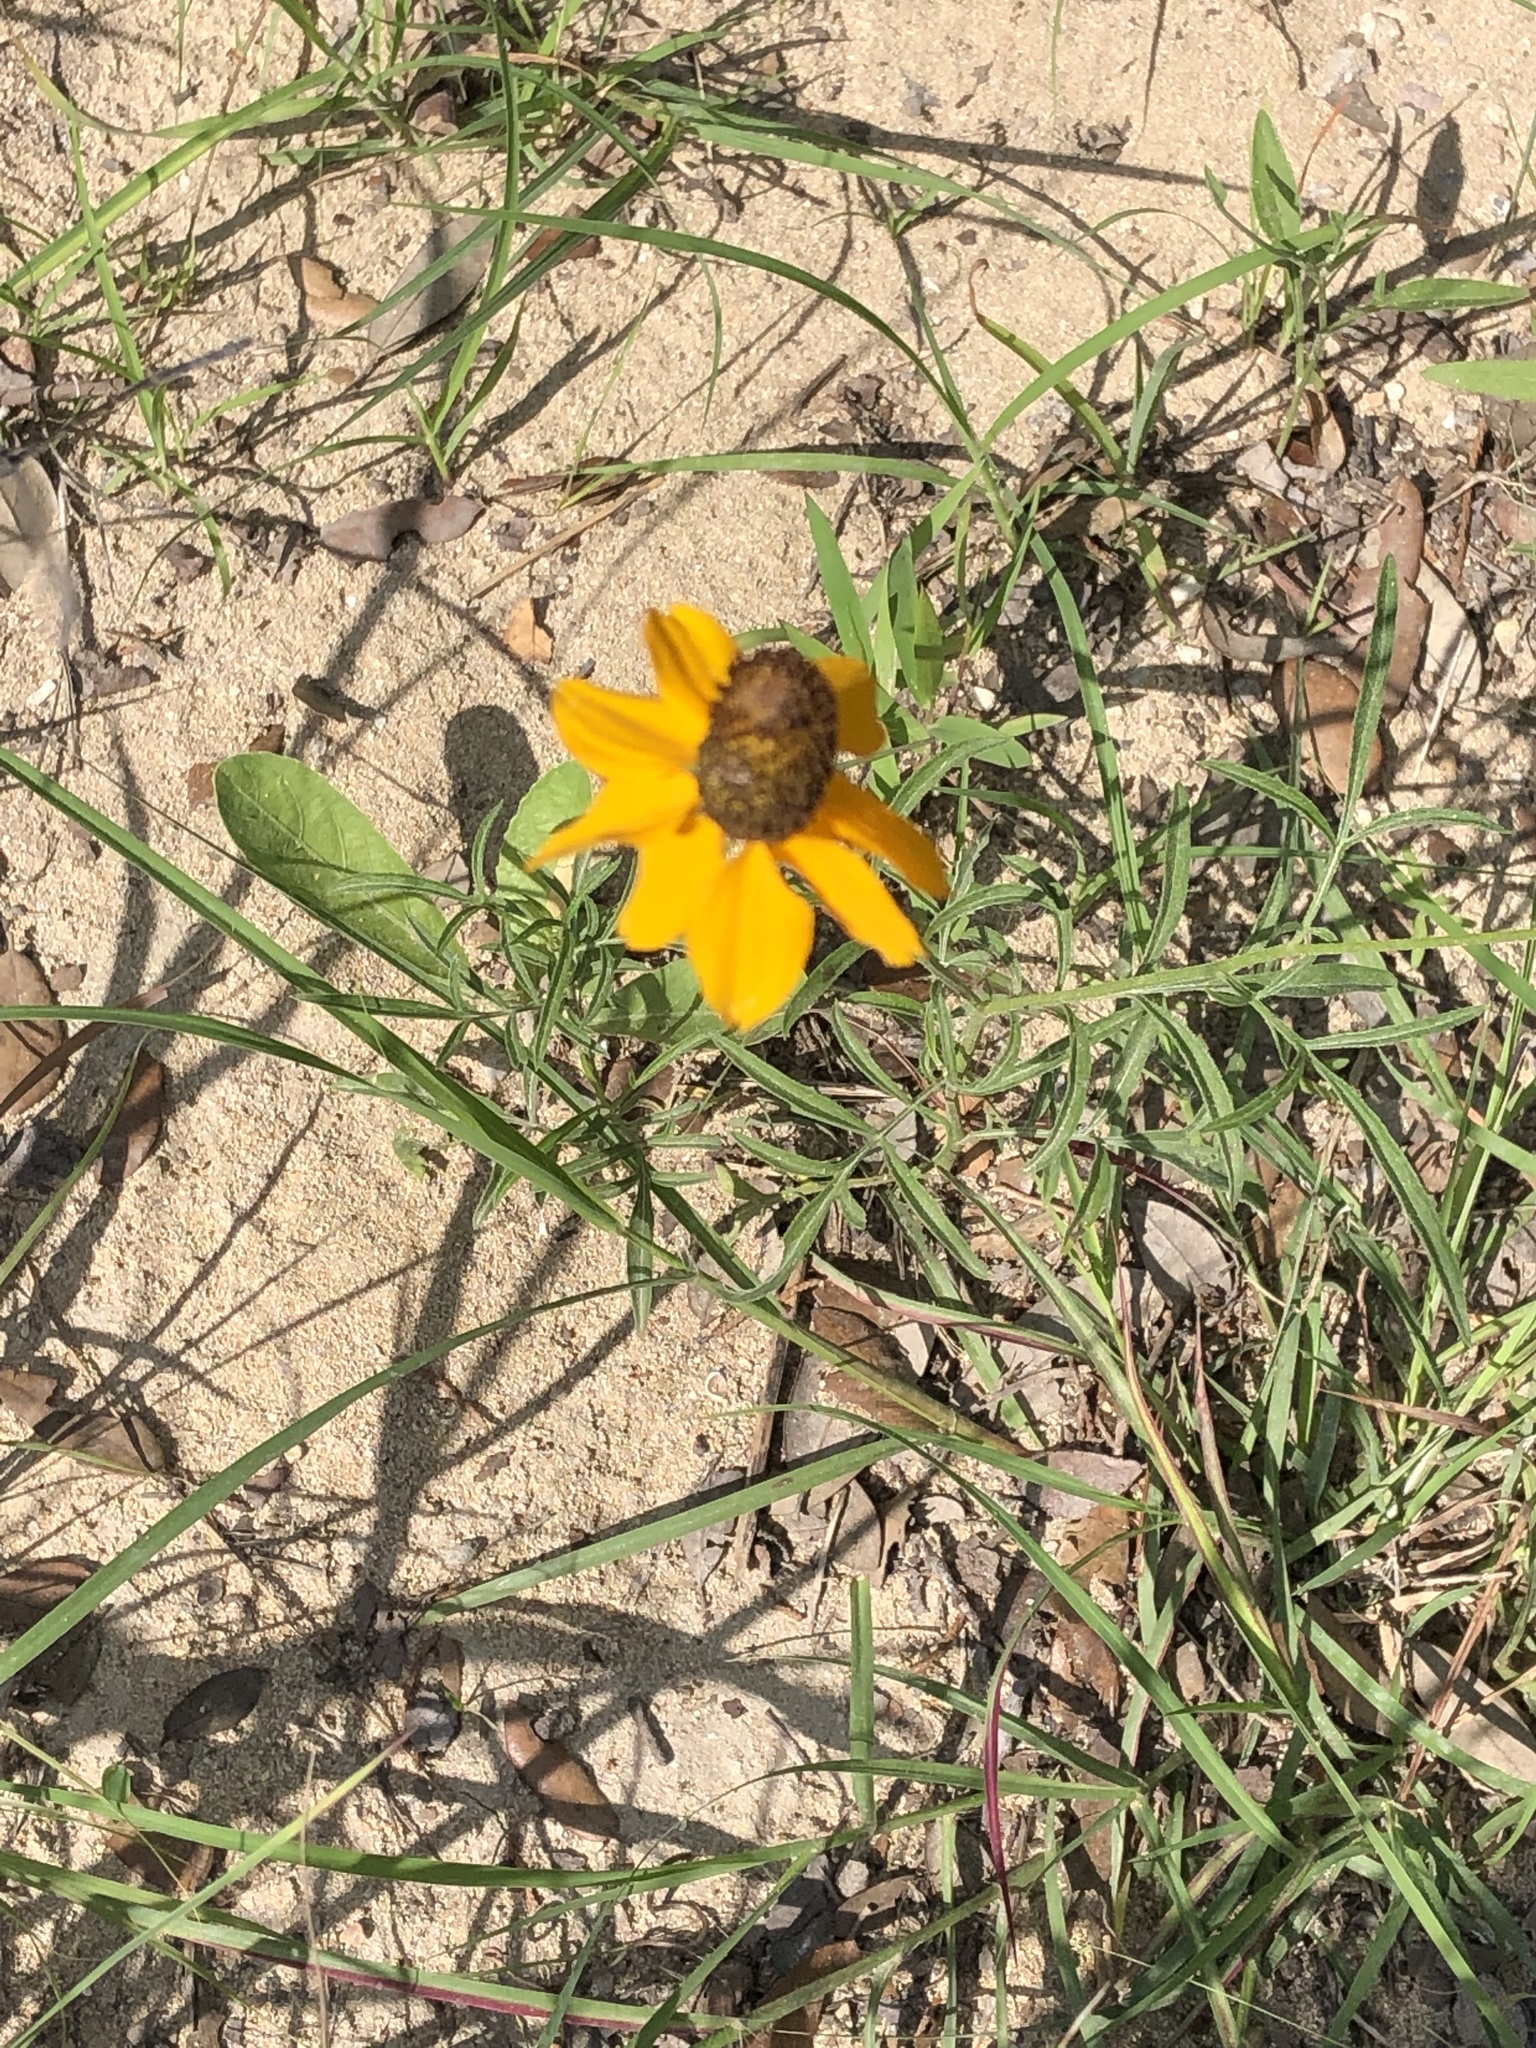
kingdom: Plantae
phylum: Tracheophyta
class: Magnoliopsida
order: Asterales
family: Asteraceae
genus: Ratibida
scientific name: Ratibida columnifera
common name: Prairie coneflower
